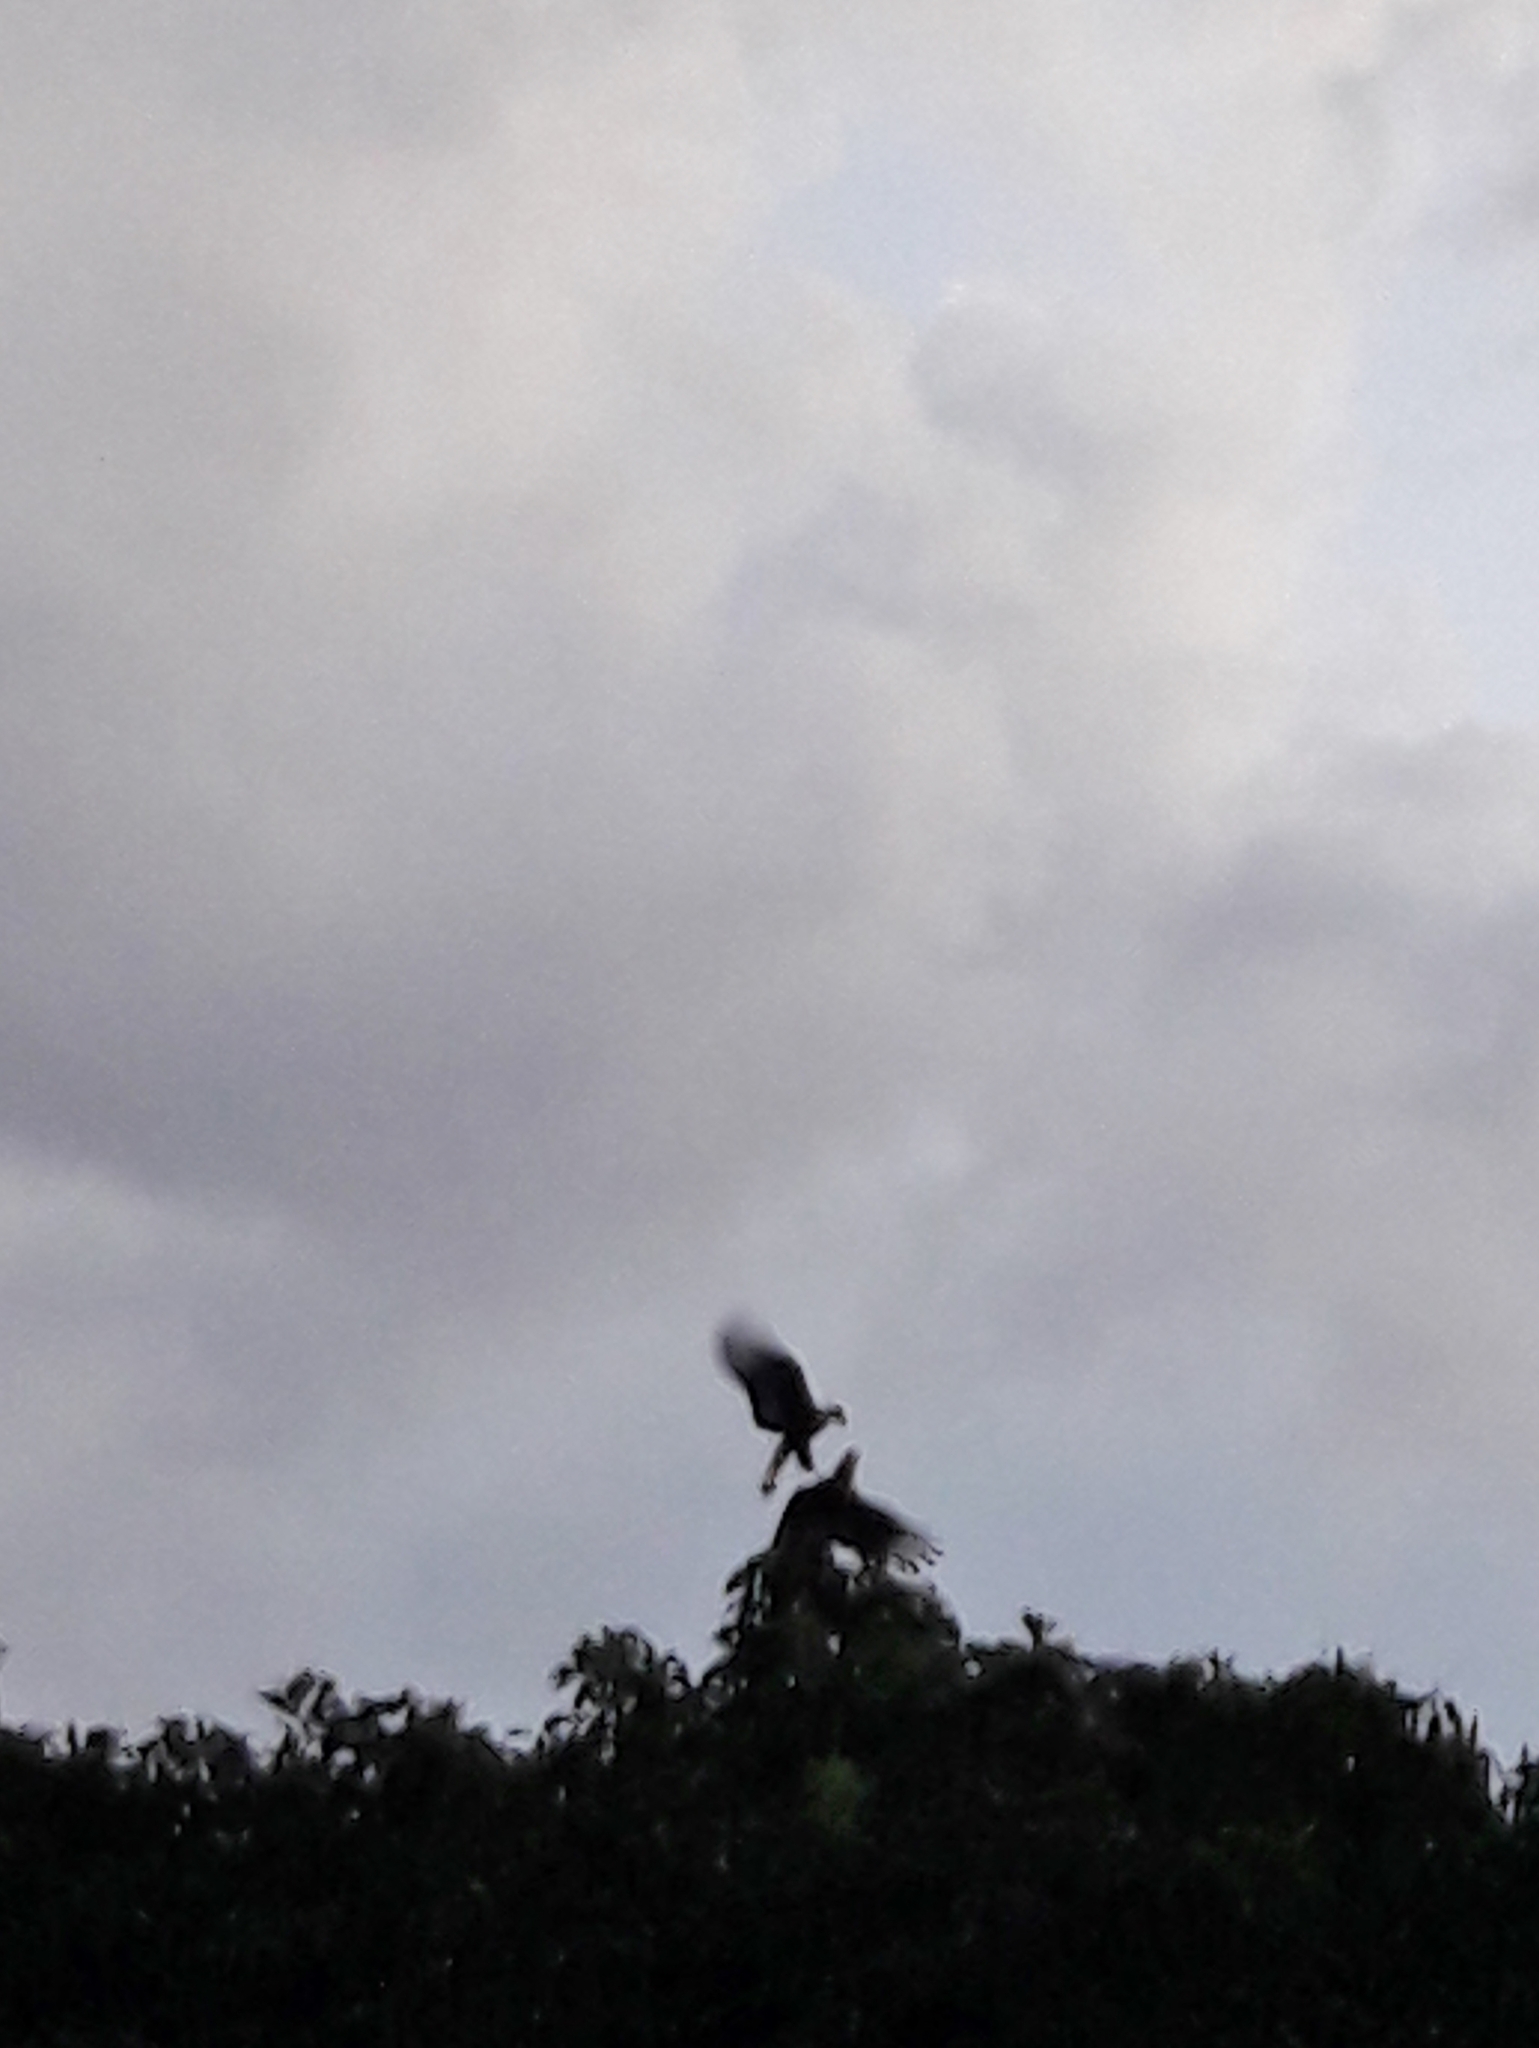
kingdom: Animalia
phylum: Chordata
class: Aves
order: Falconiformes
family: Falconidae
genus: Caracara
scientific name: Caracara plancus
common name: Southern caracara
